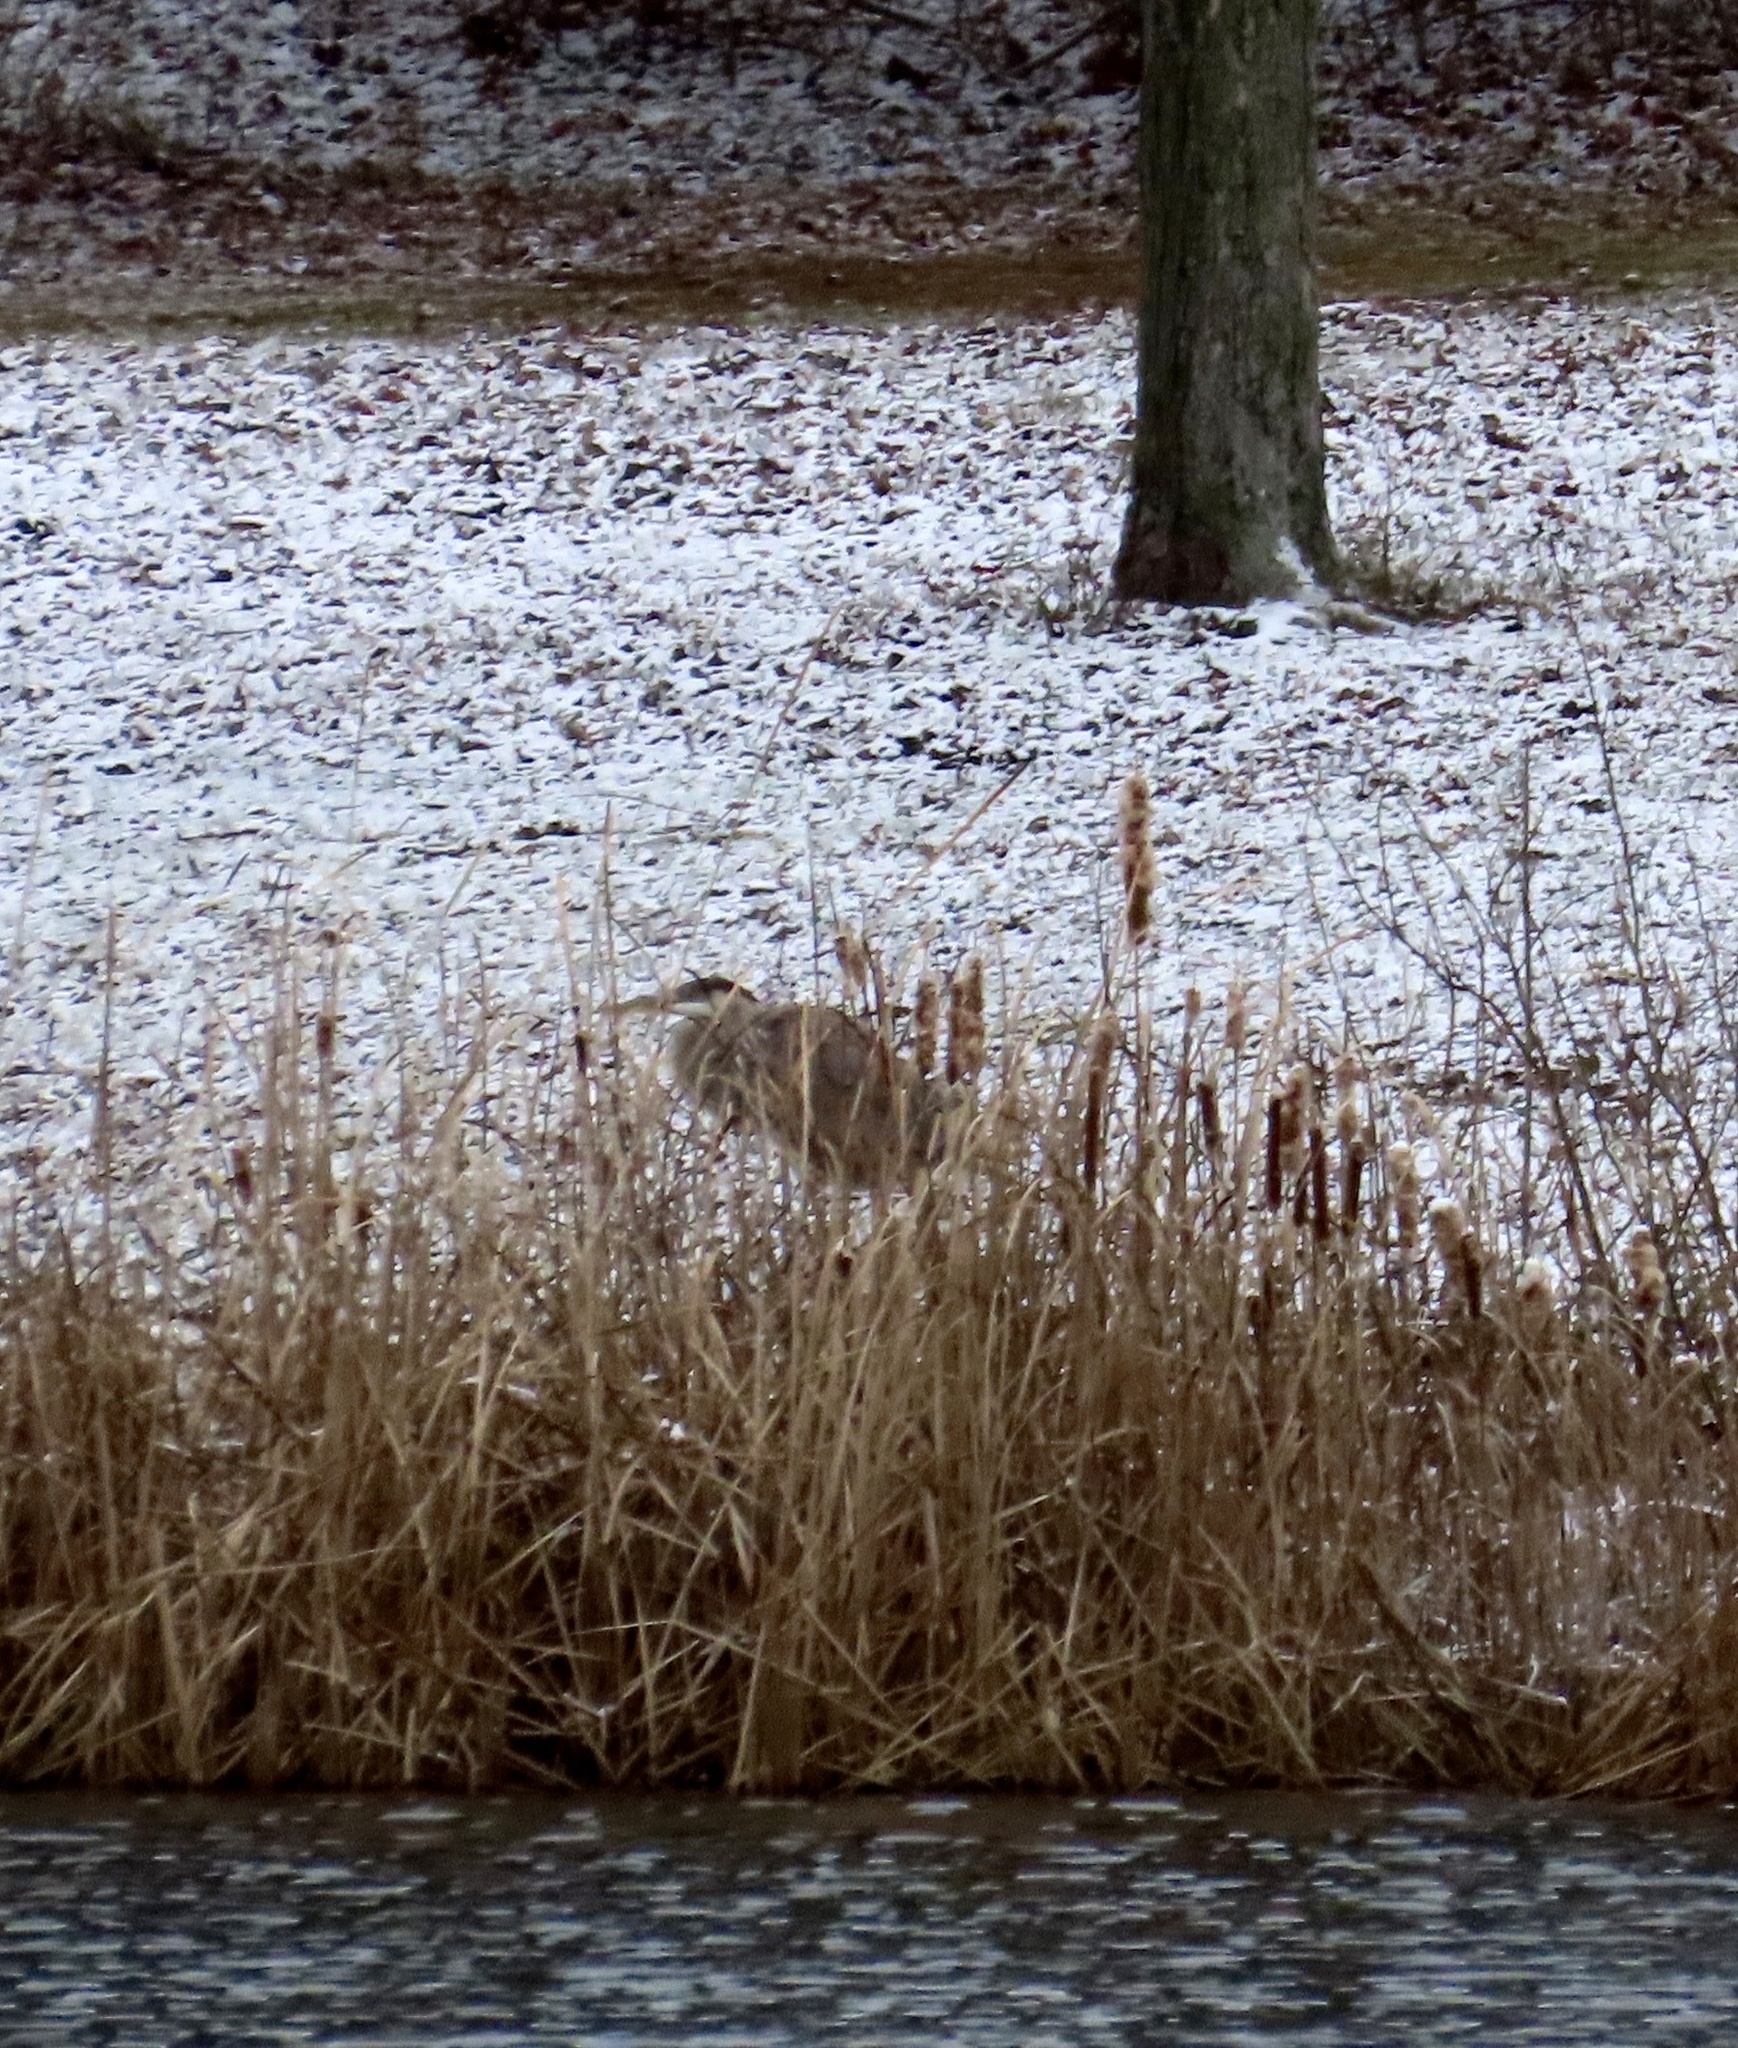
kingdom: Animalia
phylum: Chordata
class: Aves
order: Pelecaniformes
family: Ardeidae
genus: Ardea
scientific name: Ardea herodias
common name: Great blue heron
